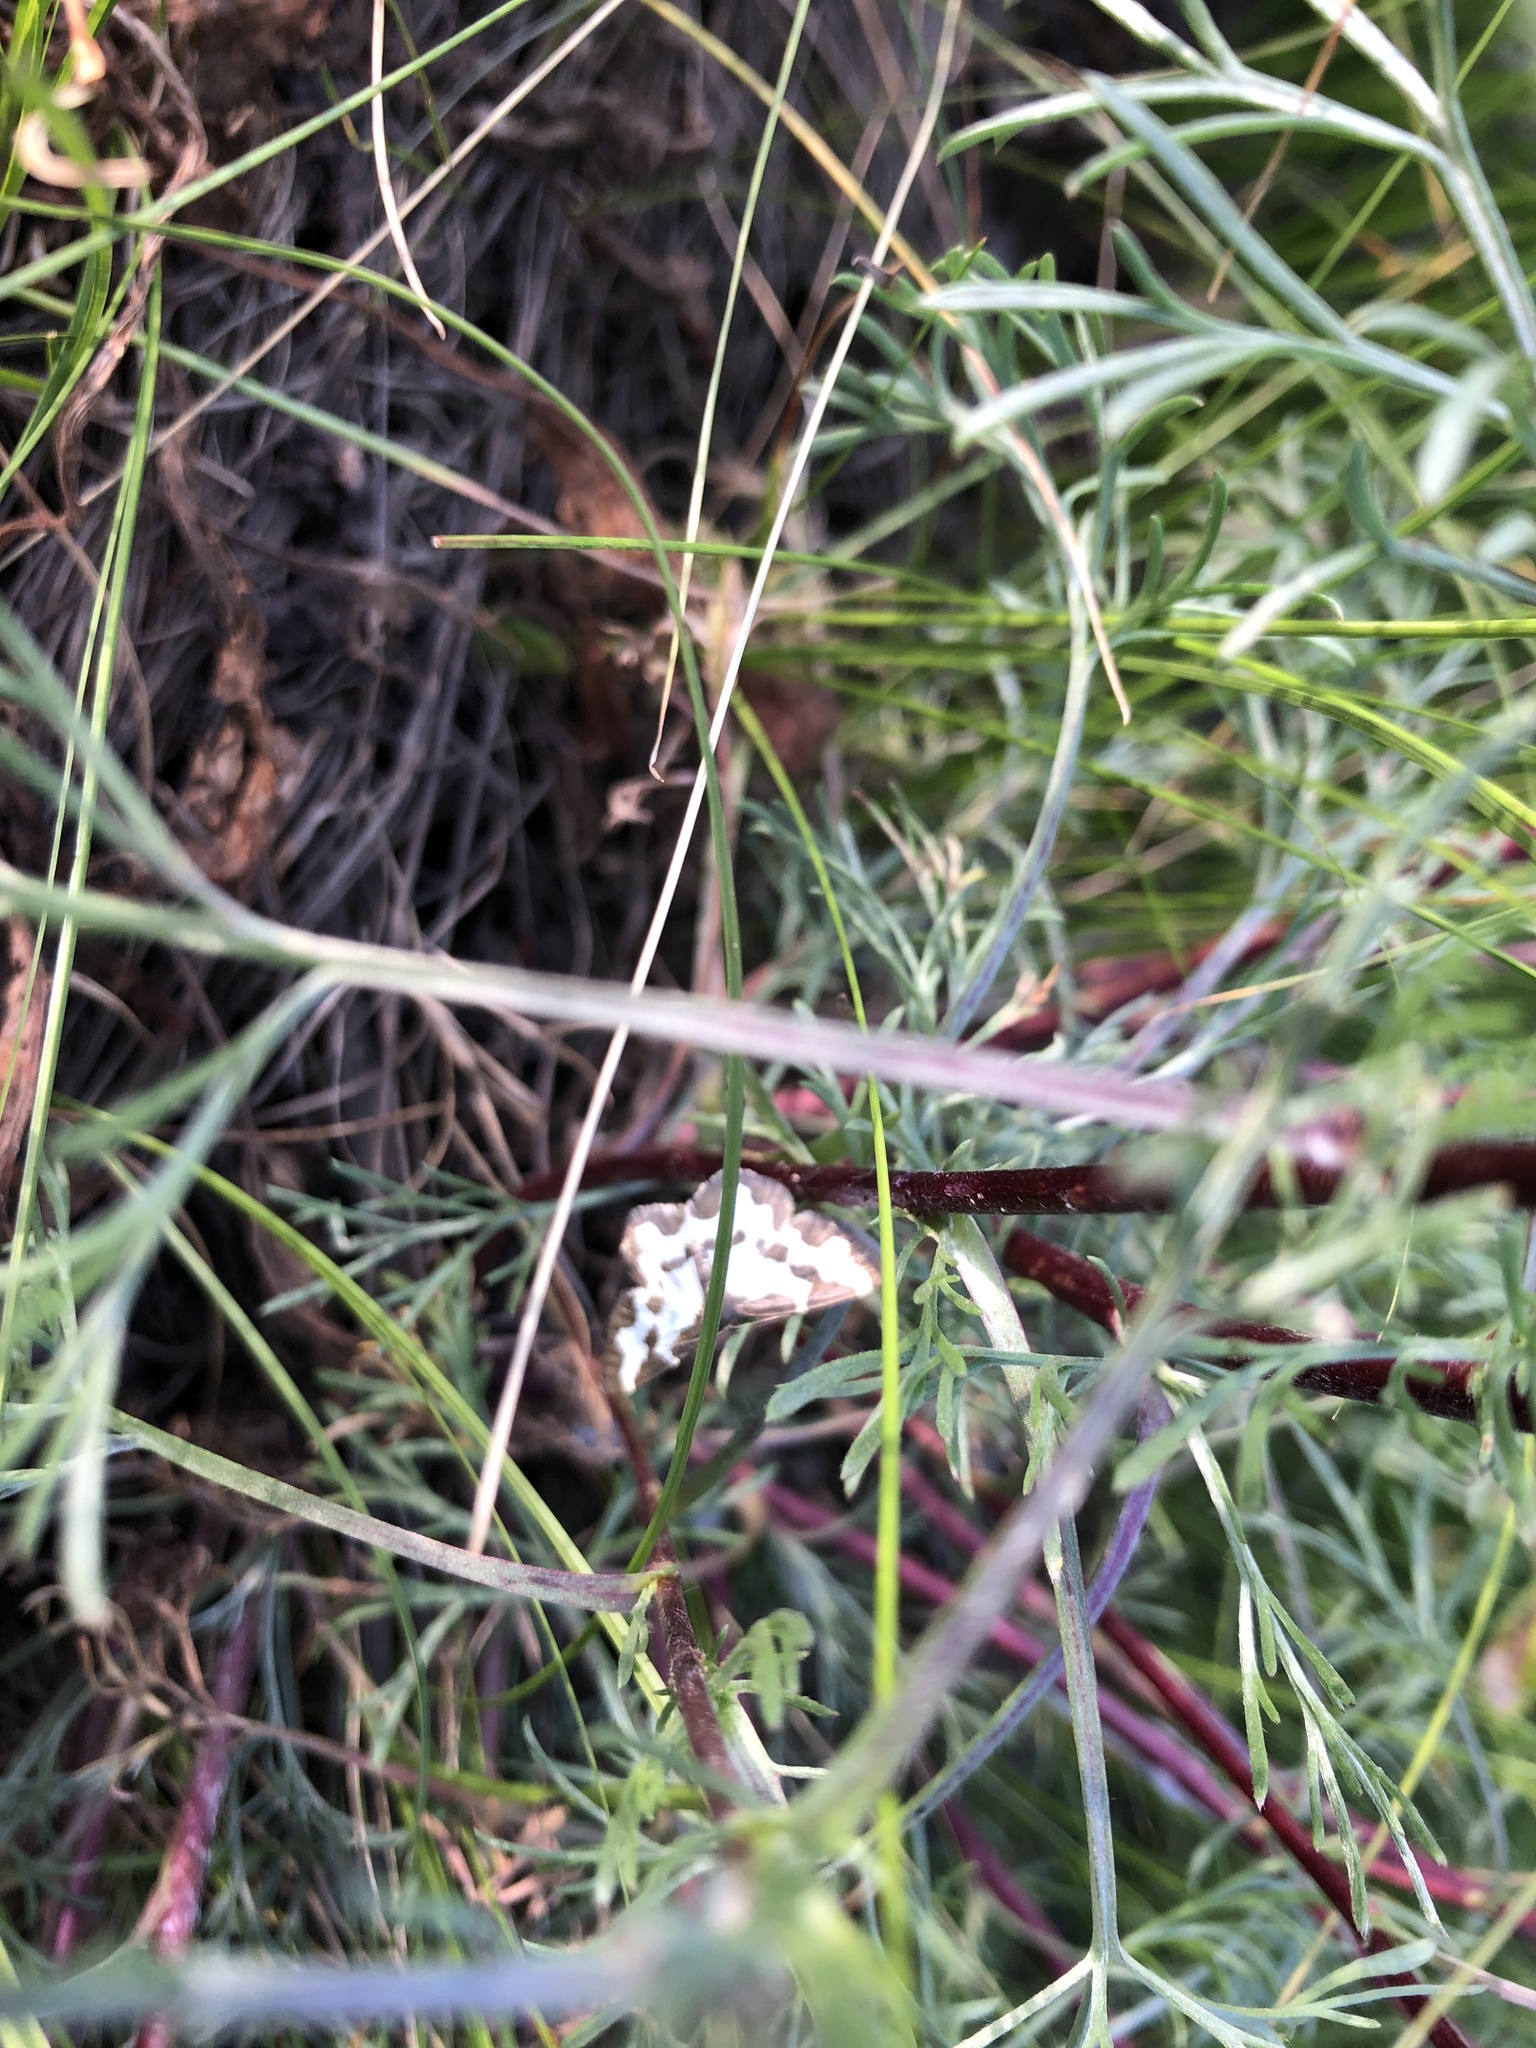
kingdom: Animalia
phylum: Arthropoda
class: Insecta
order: Lepidoptera
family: Geometridae
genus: Lomaspilis
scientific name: Lomaspilis marginata
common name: Clouded border
